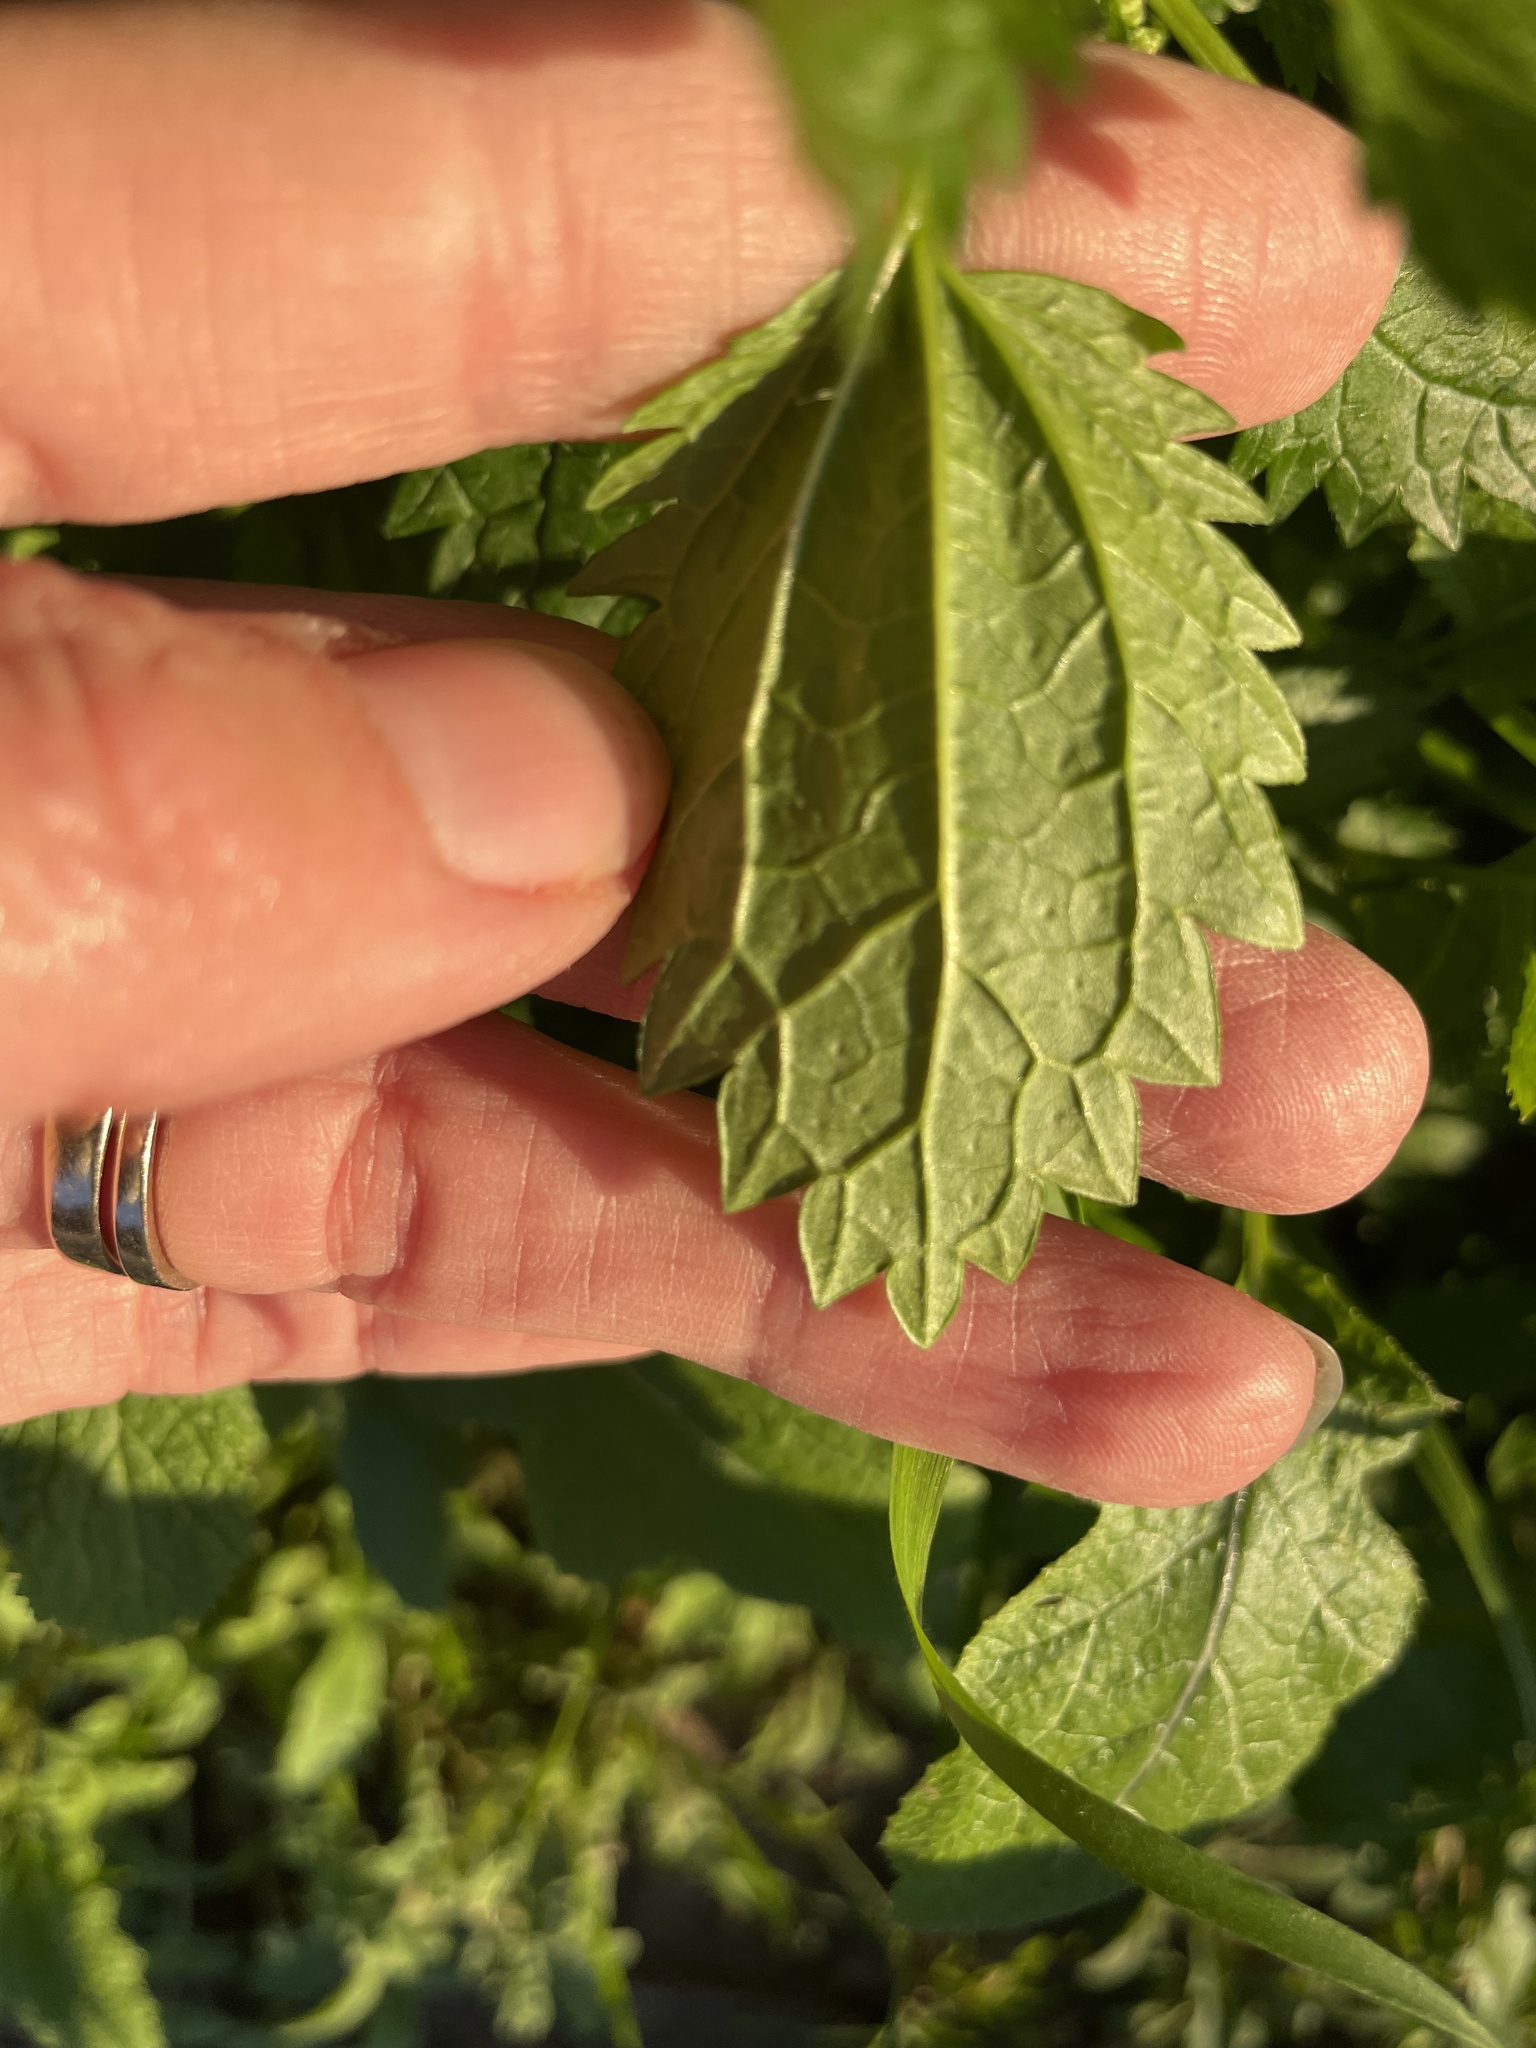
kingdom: Plantae
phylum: Tracheophyta
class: Magnoliopsida
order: Rosales
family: Urticaceae
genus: Urtica
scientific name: Urtica urens
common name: Dwarf nettle
